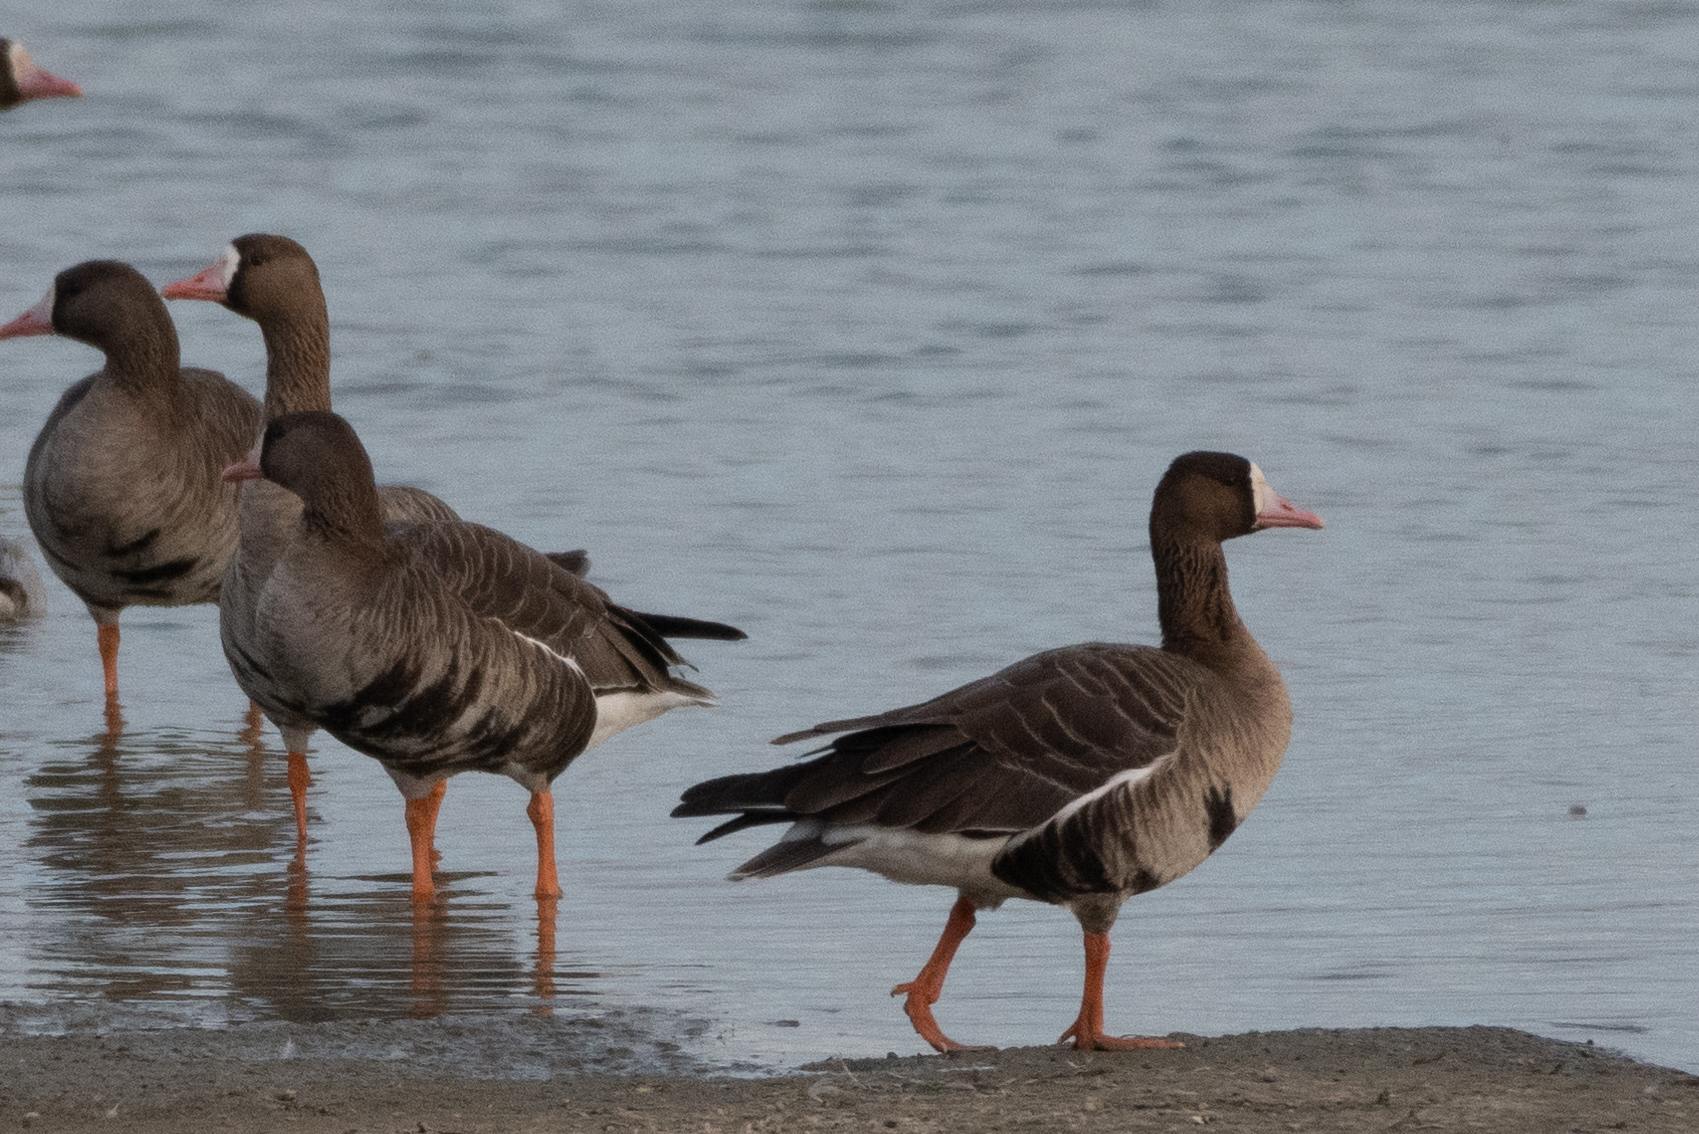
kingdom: Animalia
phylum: Chordata
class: Aves
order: Anseriformes
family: Anatidae
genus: Anser
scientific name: Anser albifrons
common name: Greater white-fronted goose
